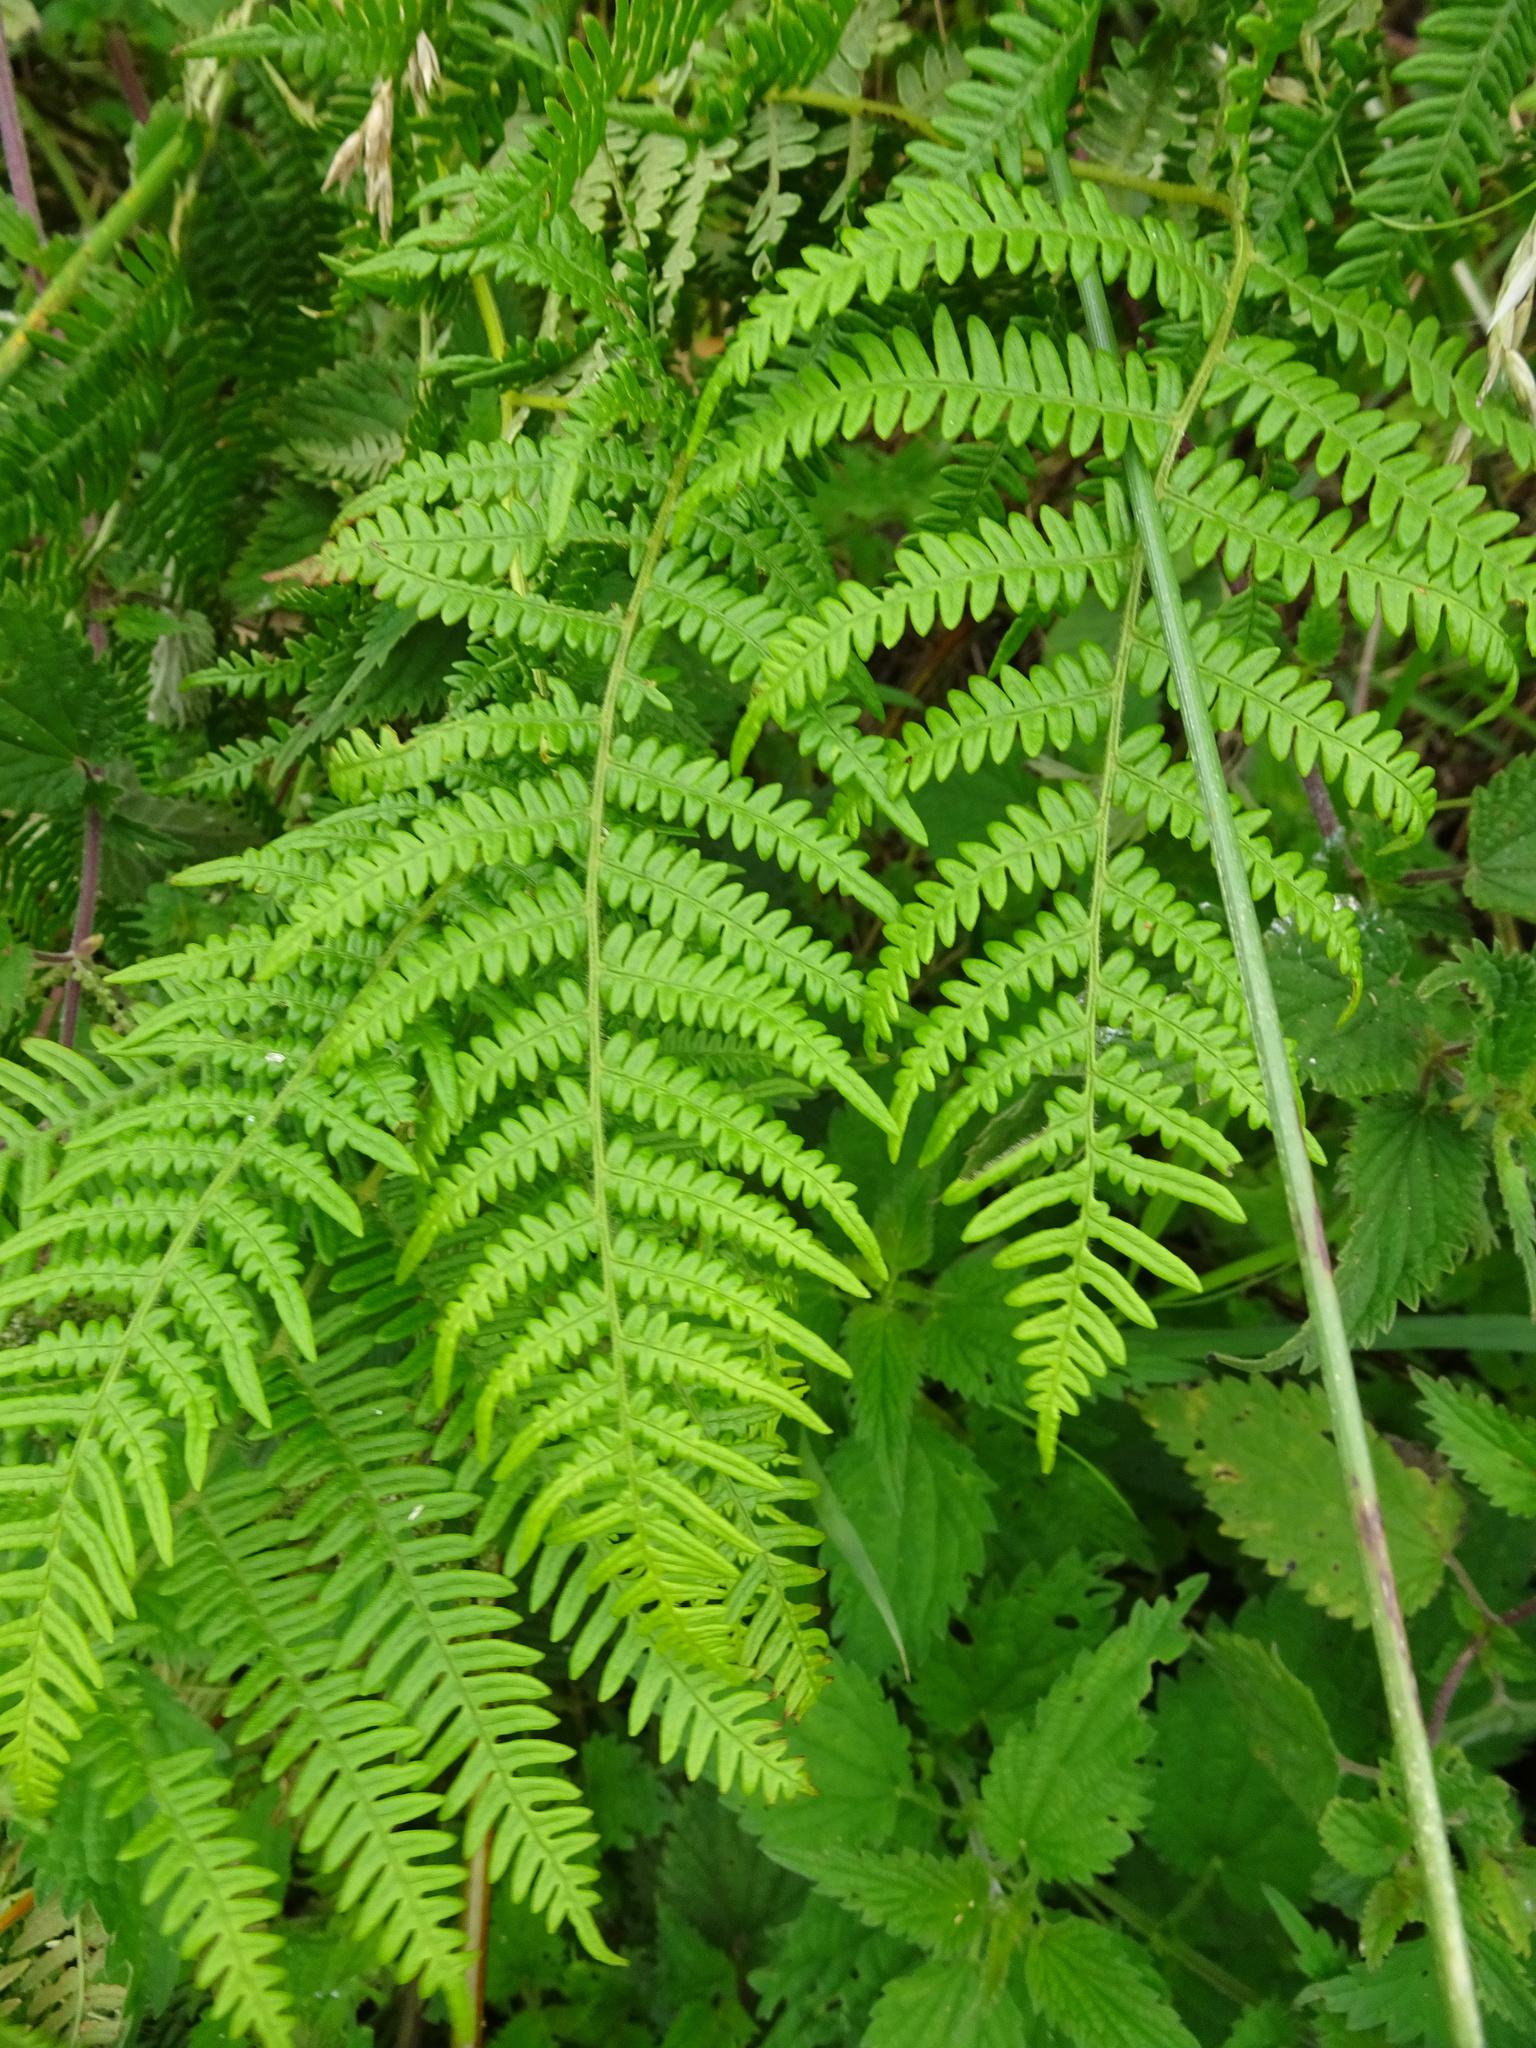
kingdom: Plantae
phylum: Tracheophyta
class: Polypodiopsida
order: Polypodiales
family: Dennstaedtiaceae
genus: Pteridium
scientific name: Pteridium aquilinum
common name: Bracken
